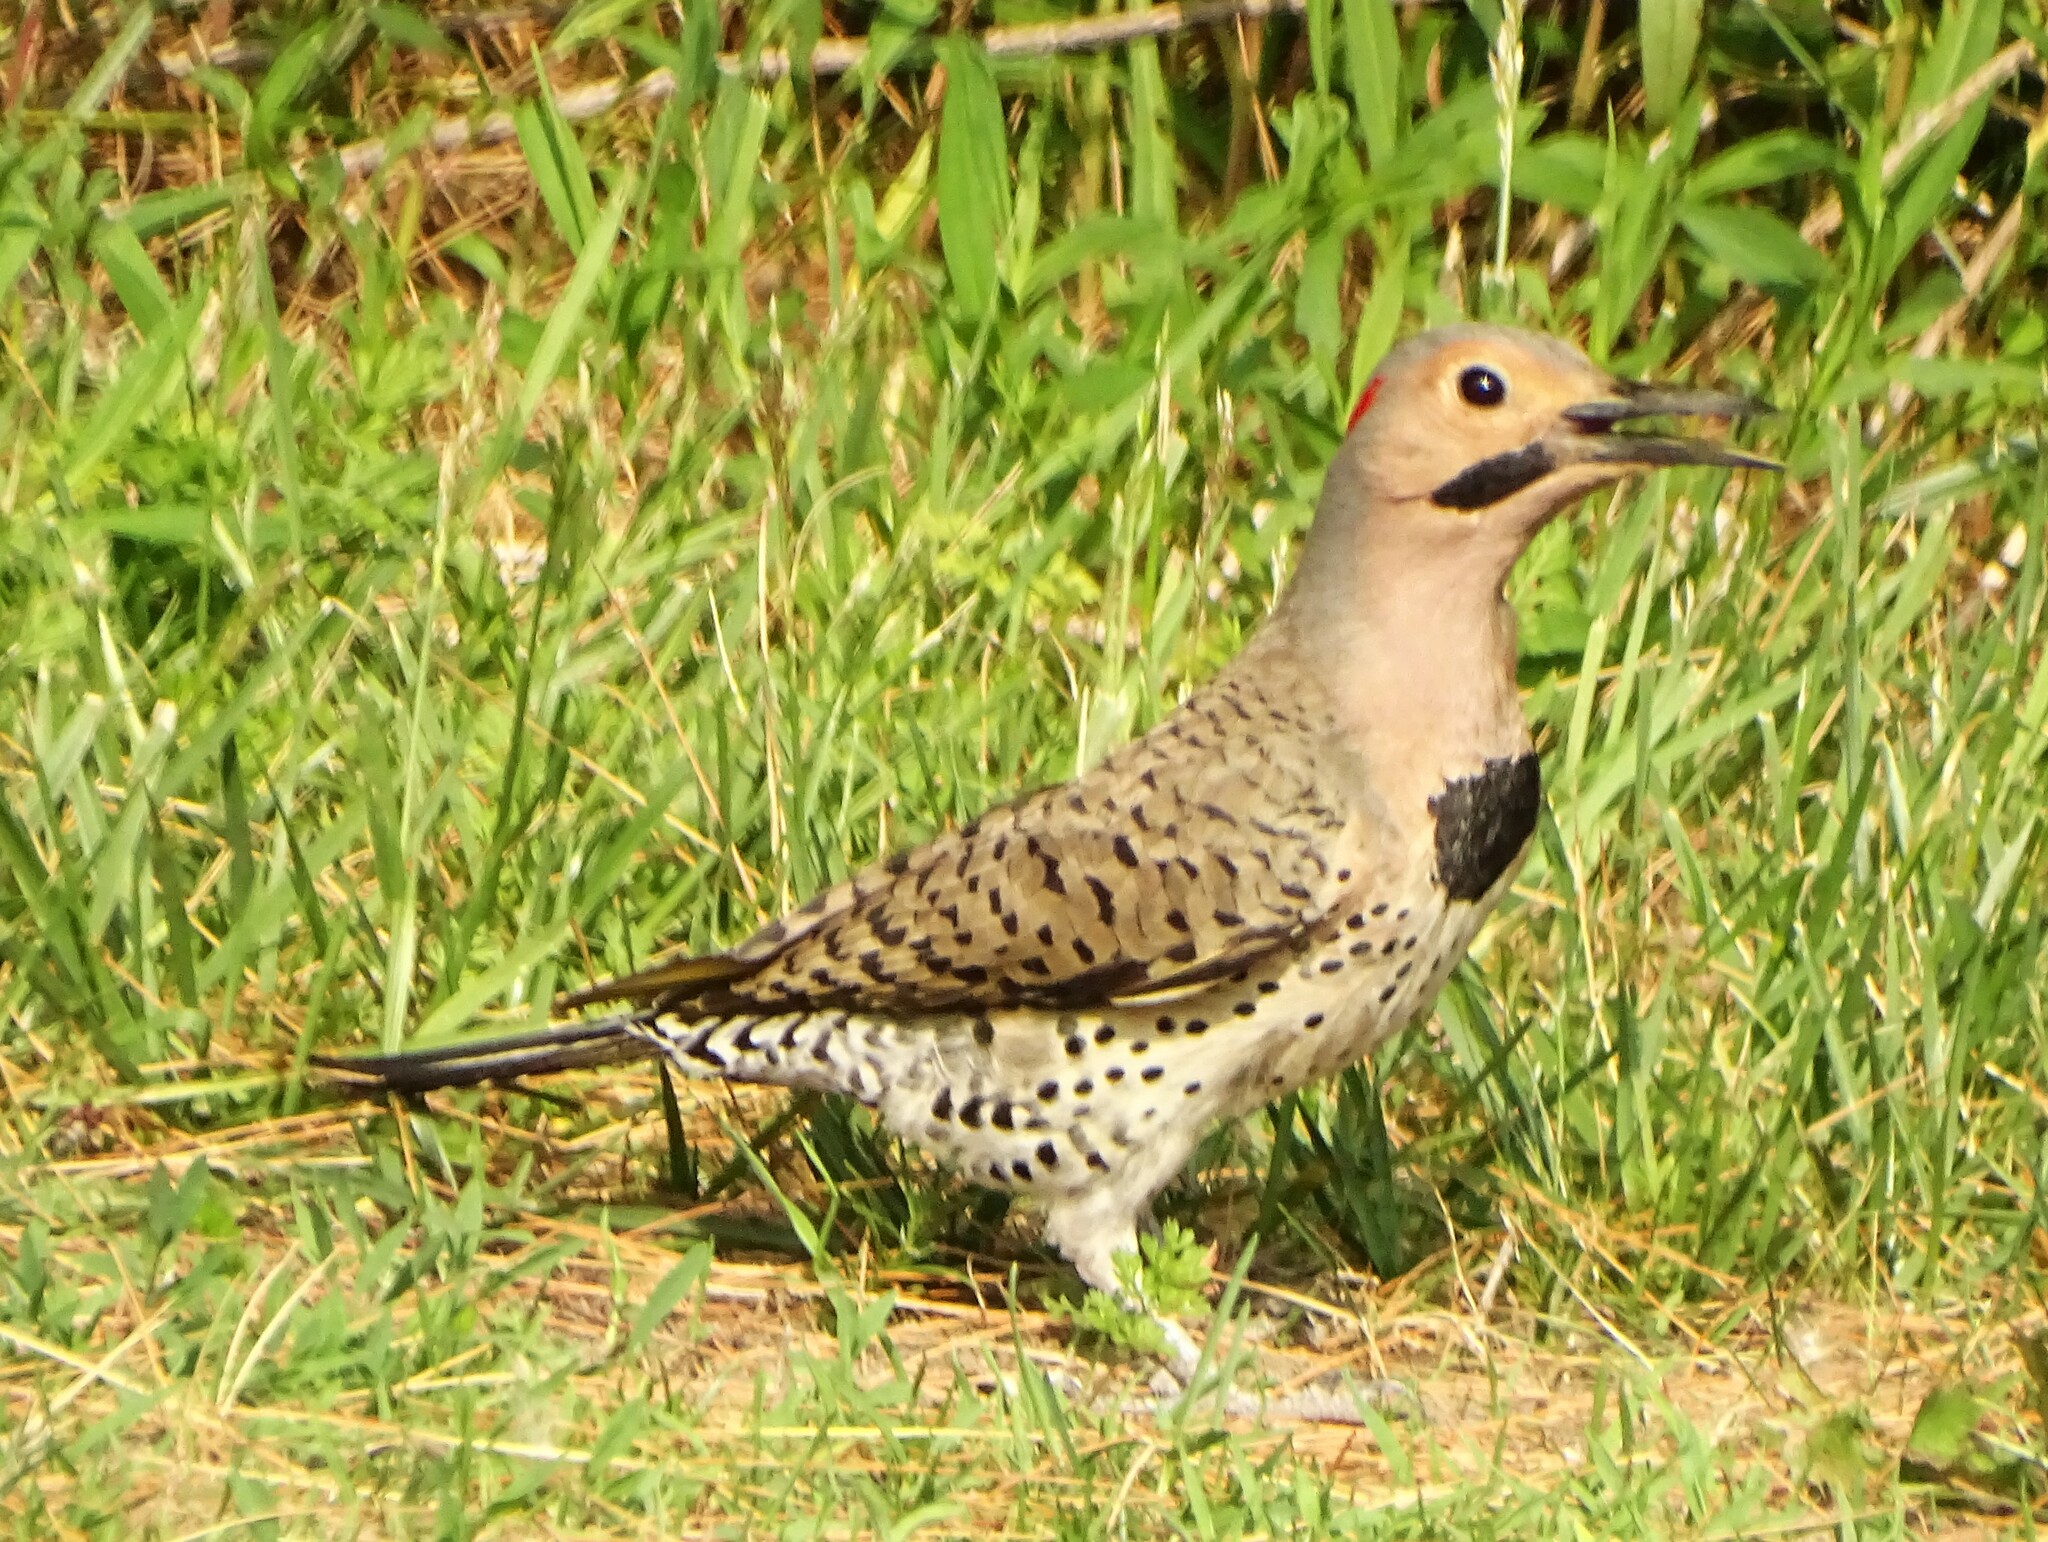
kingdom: Animalia
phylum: Chordata
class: Aves
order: Piciformes
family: Picidae
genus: Colaptes
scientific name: Colaptes auratus
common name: Northern flicker
